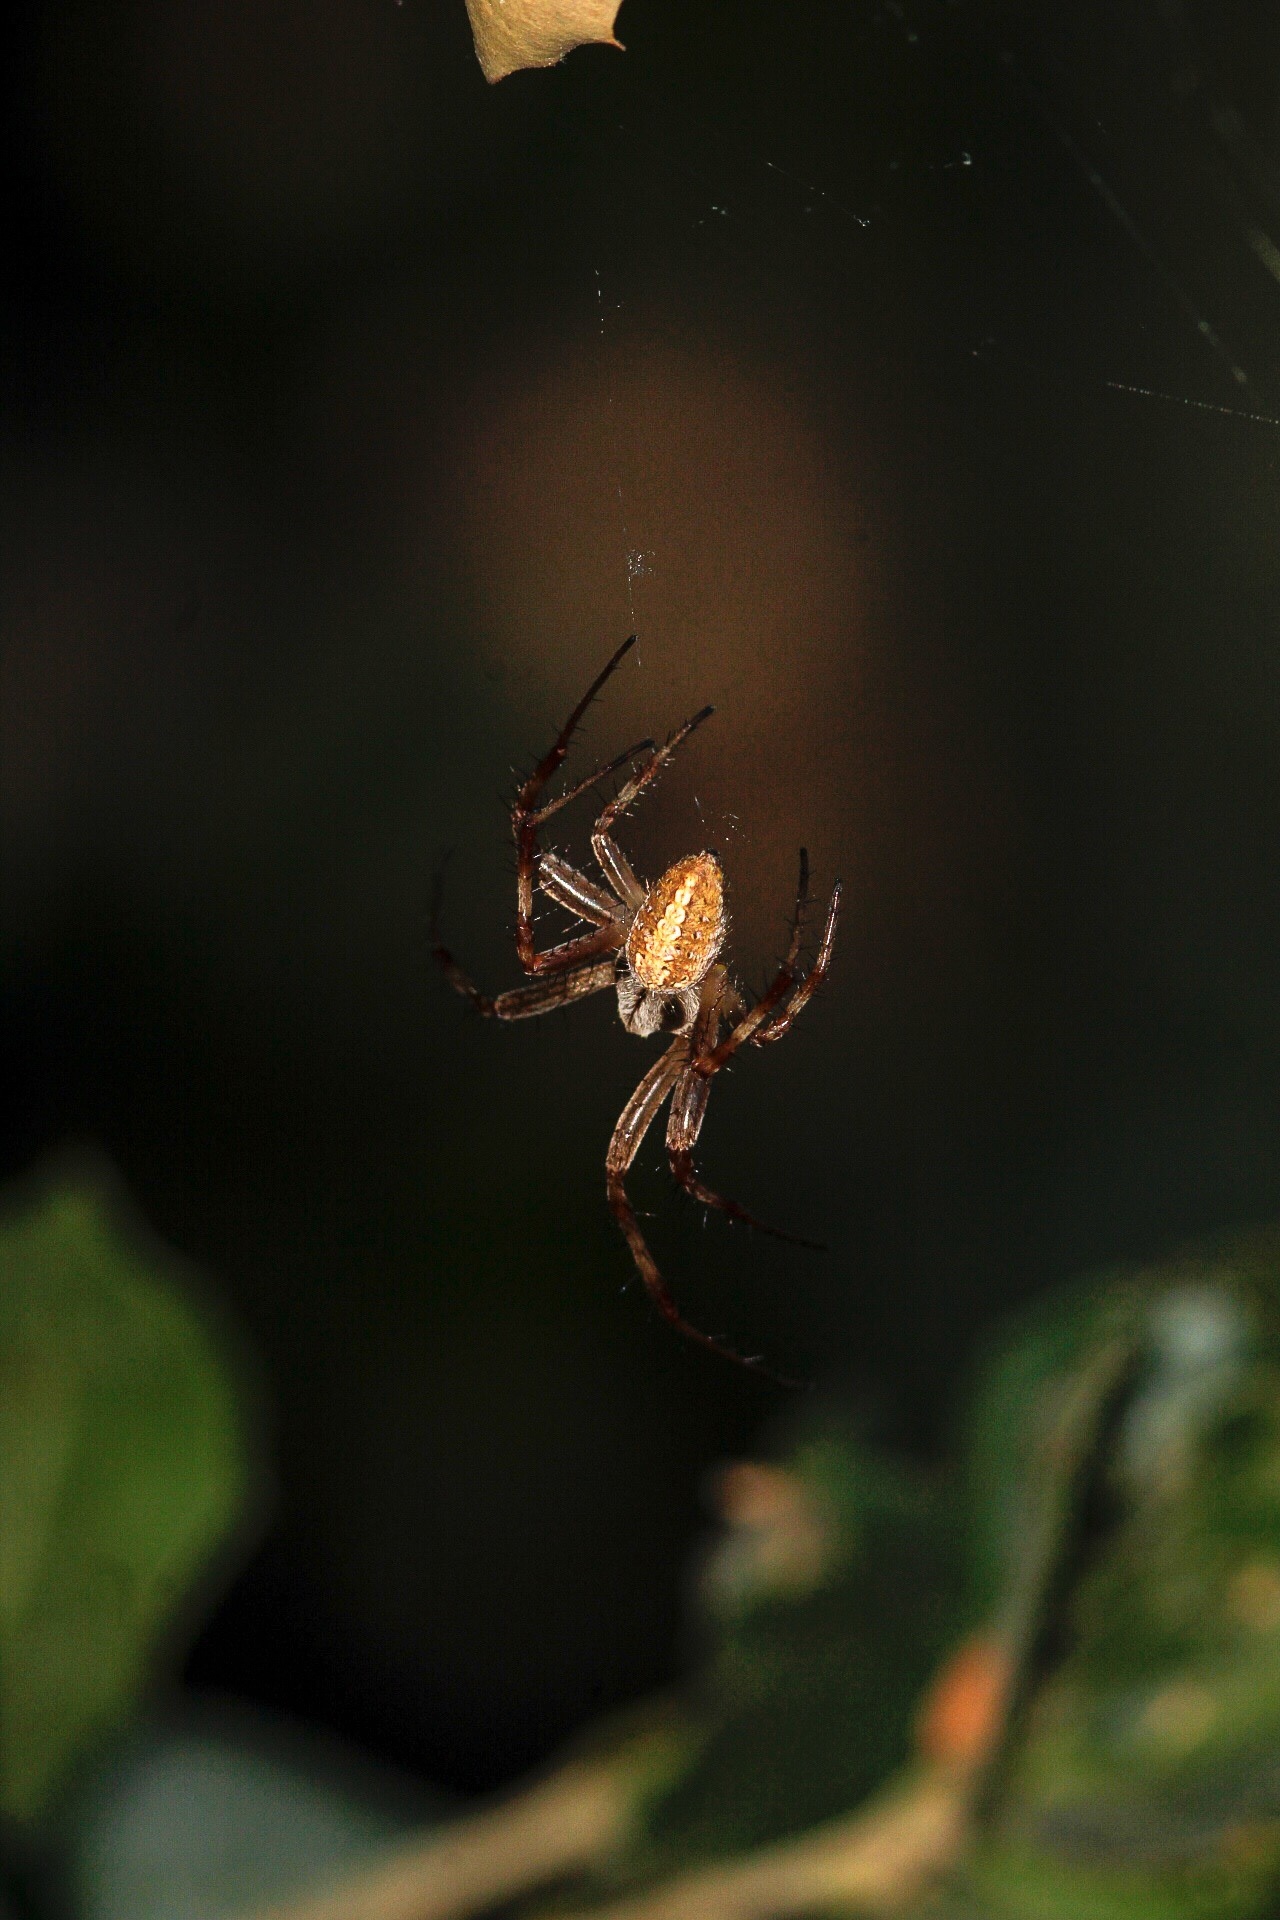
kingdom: Animalia
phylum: Arthropoda
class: Arachnida
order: Araneae
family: Araneidae
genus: Neoscona
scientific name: Neoscona oaxacensis
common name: Orb weavers
